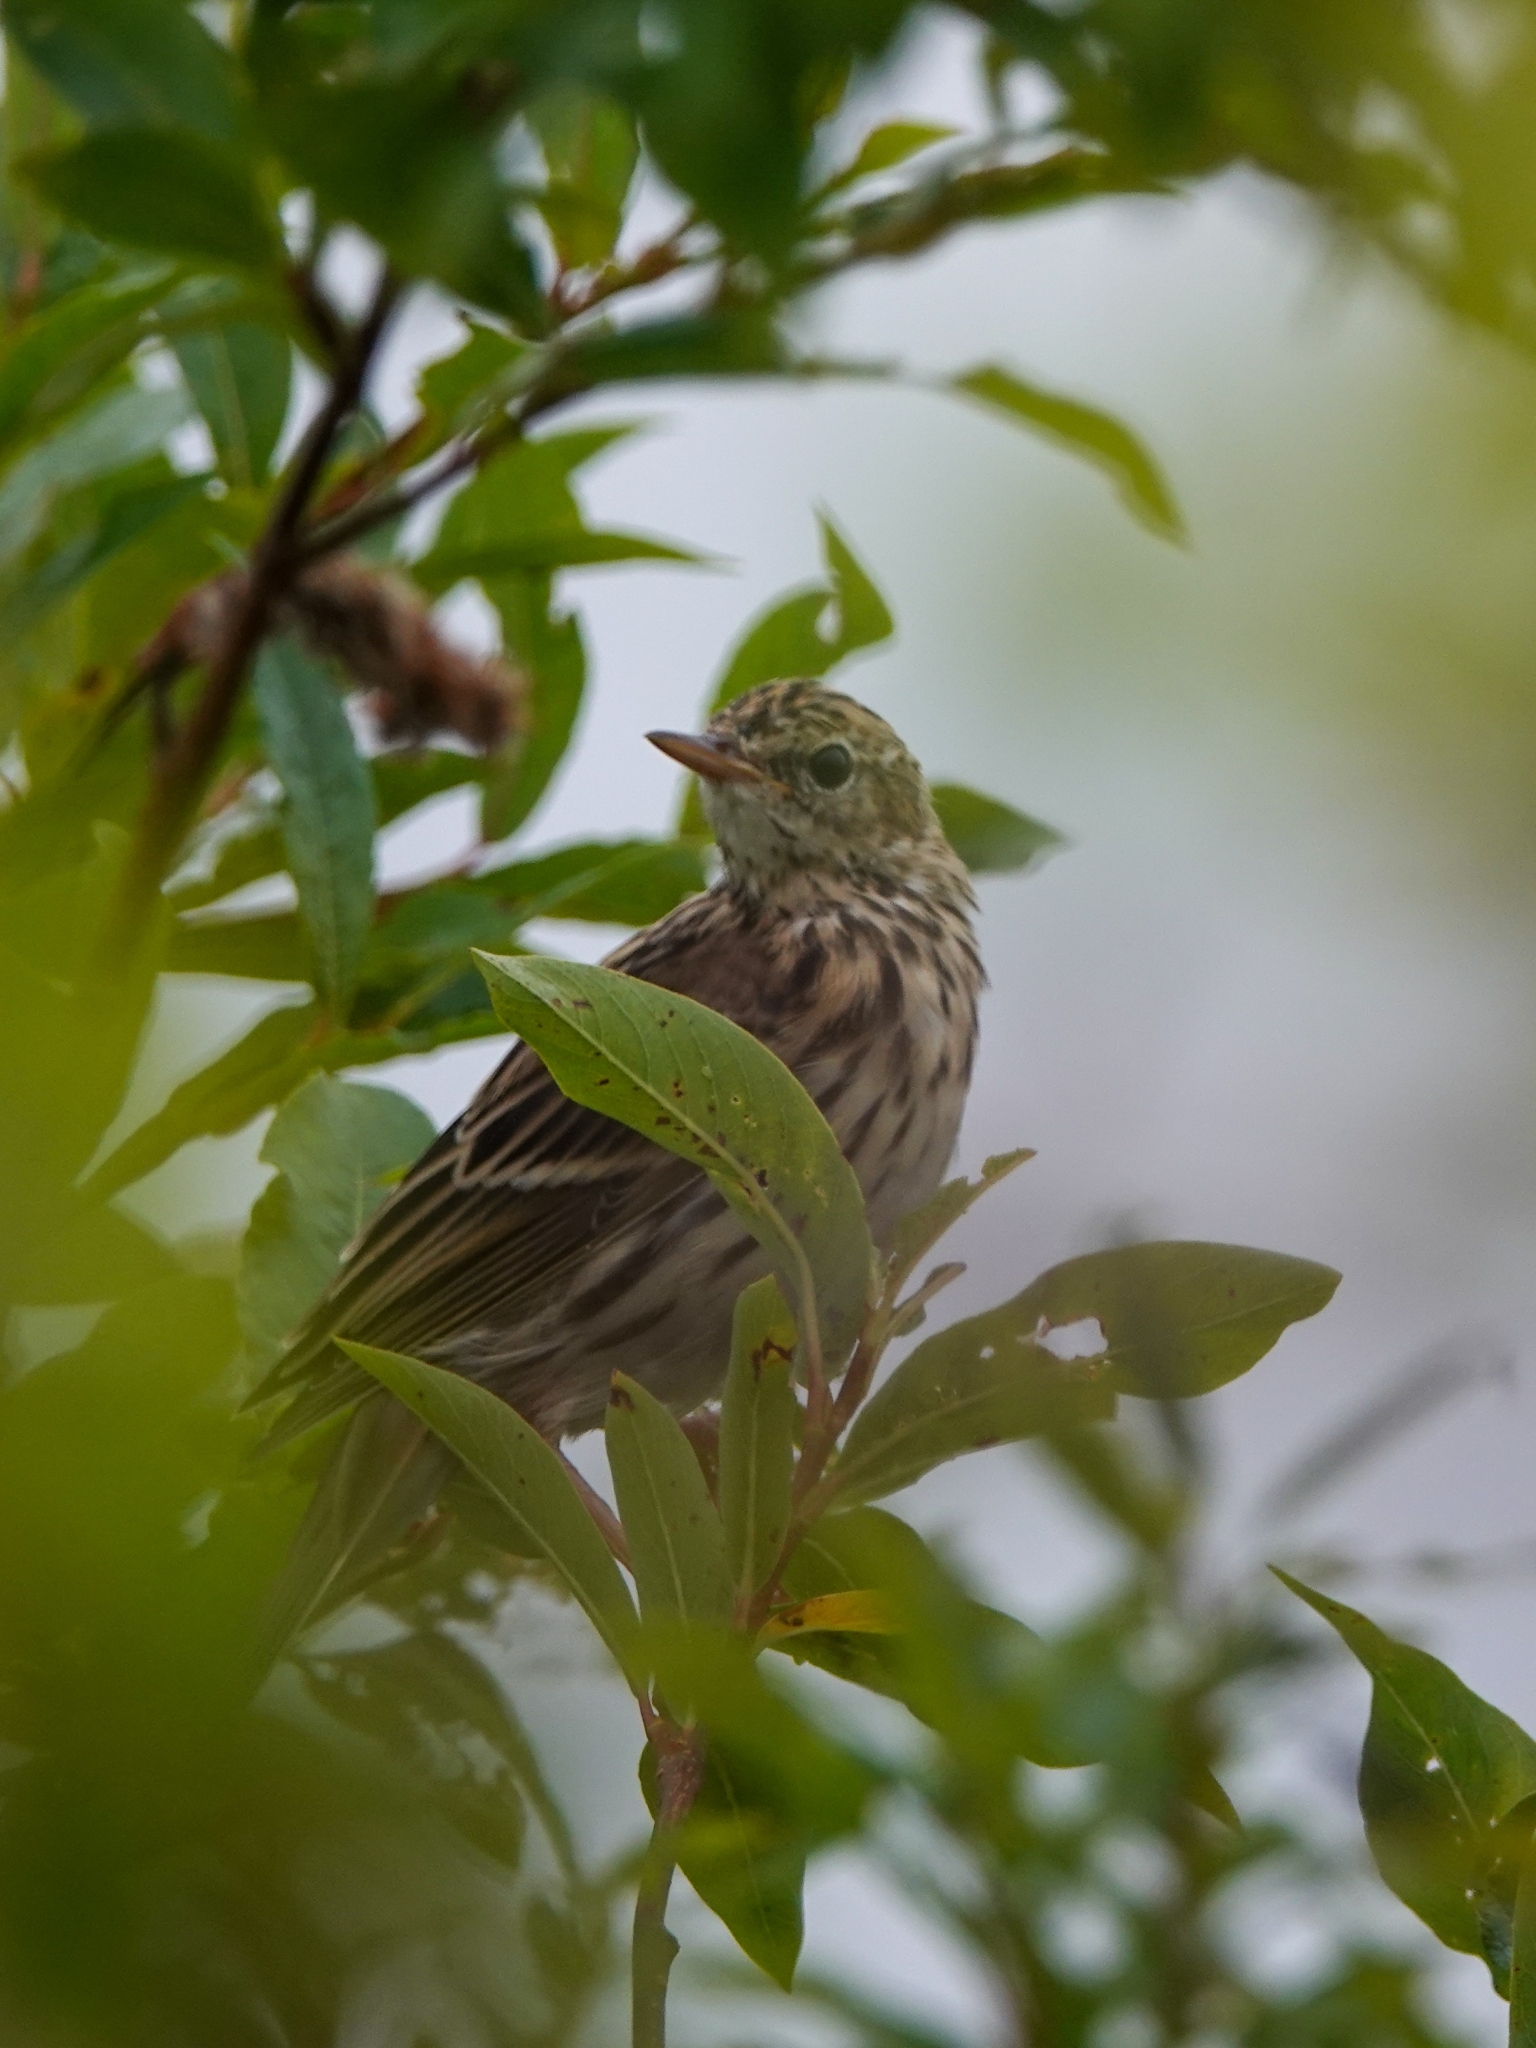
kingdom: Animalia
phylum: Chordata
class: Aves
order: Passeriformes
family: Motacillidae
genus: Anthus
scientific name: Anthus gustavi
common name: Pechora pipit
